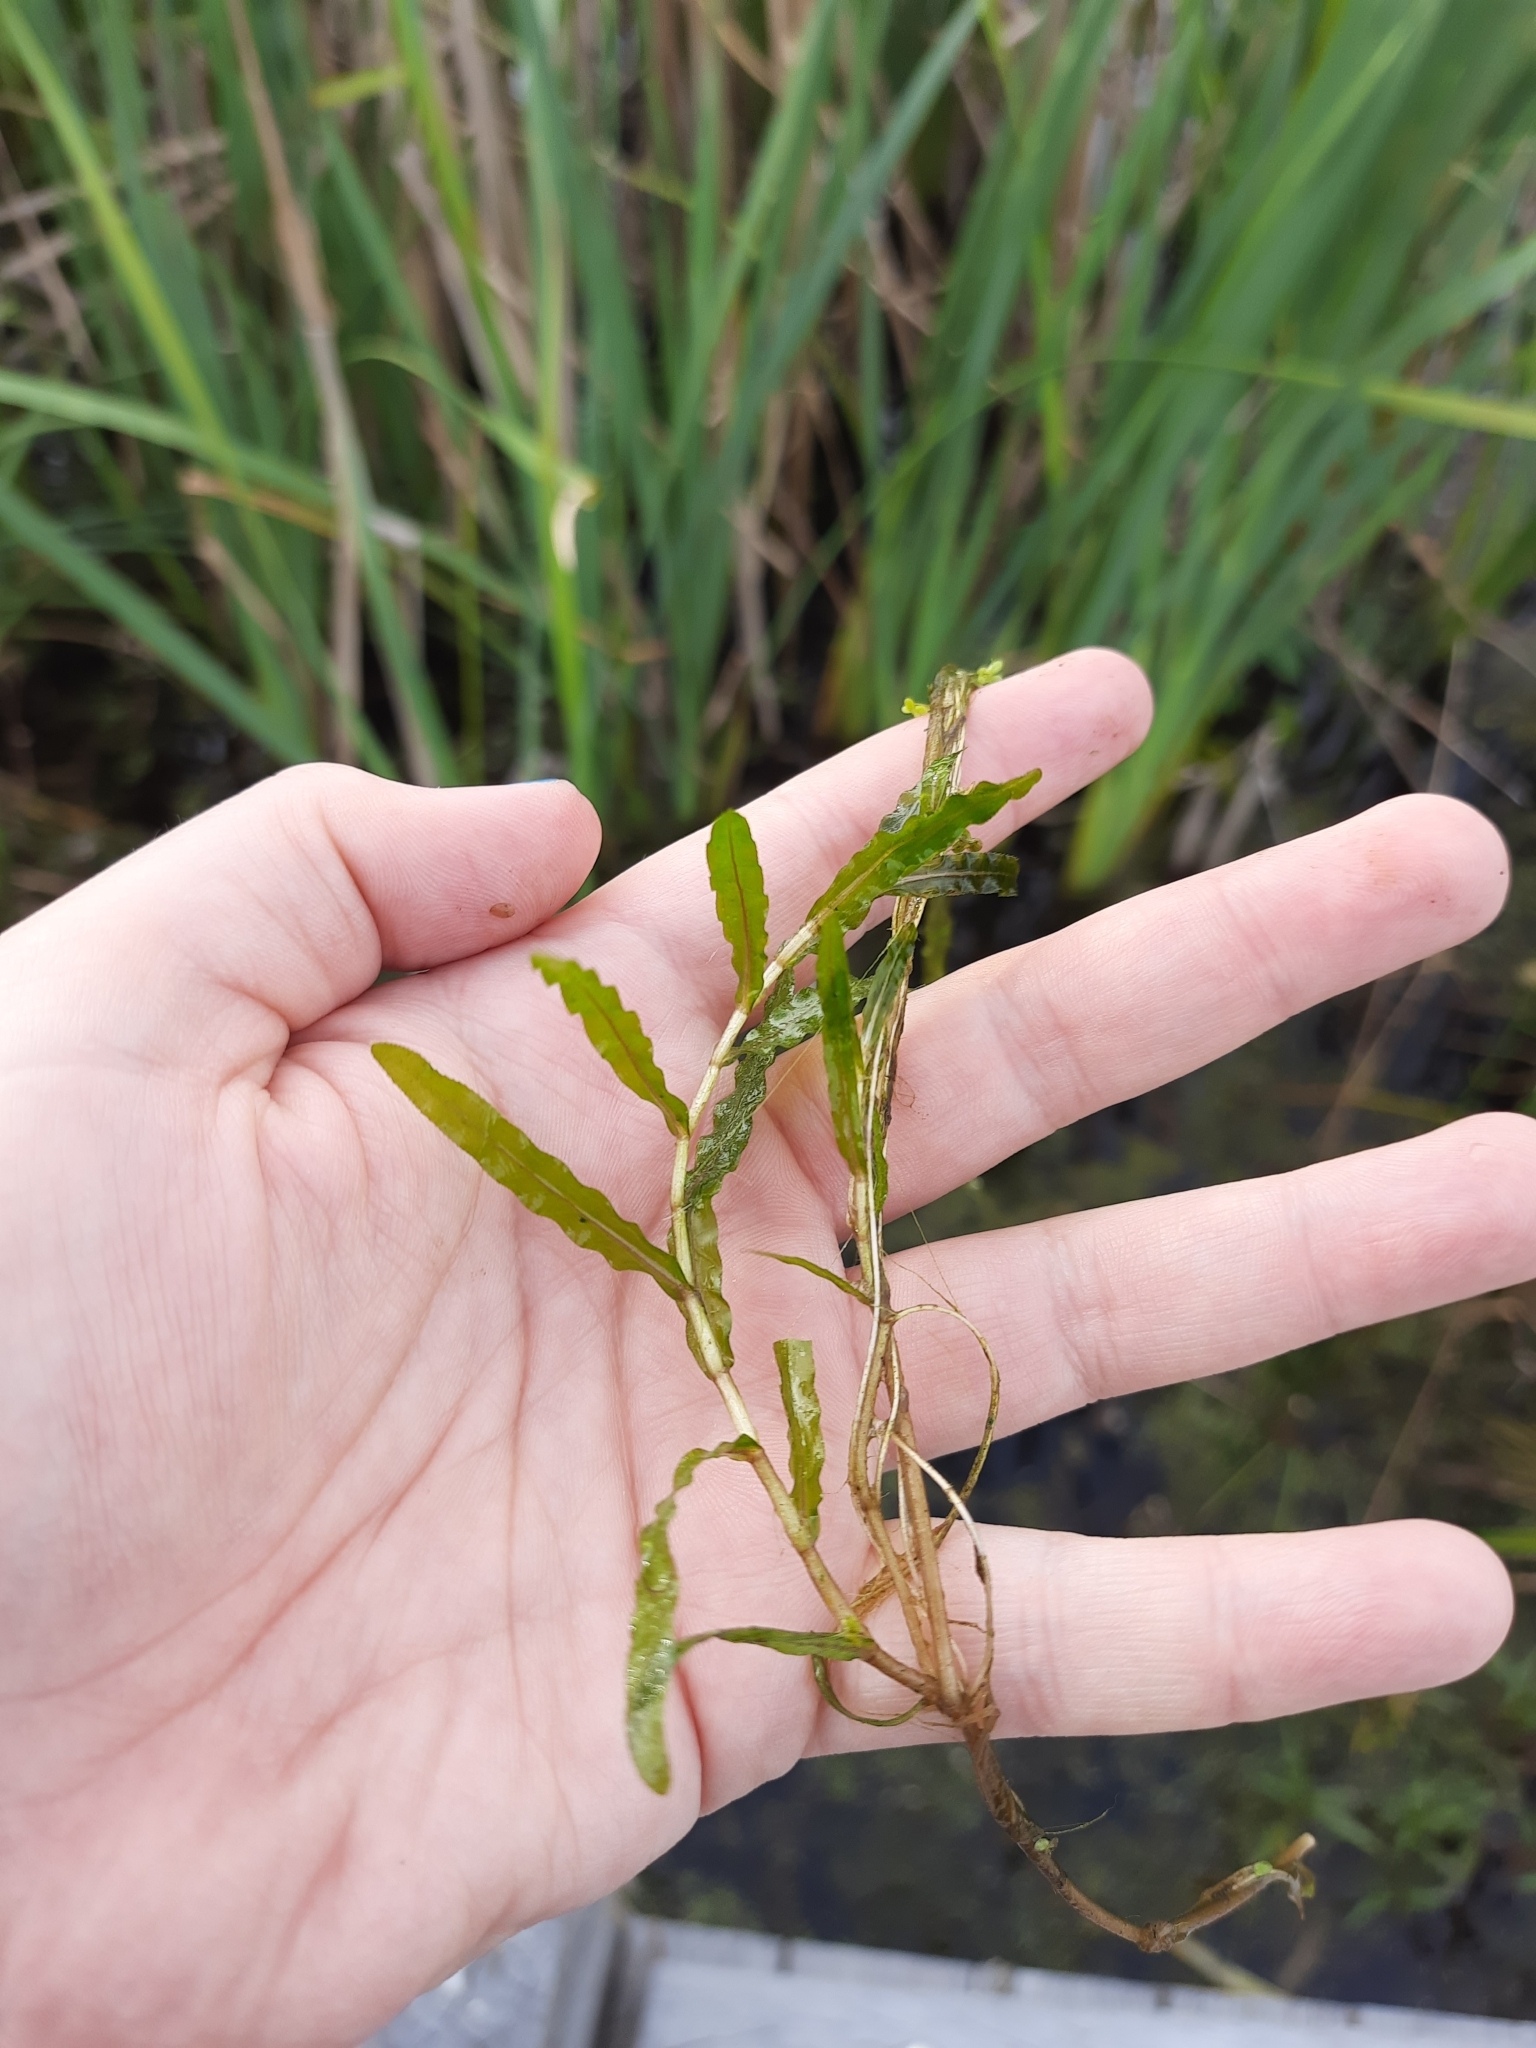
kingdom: Plantae
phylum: Tracheophyta
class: Liliopsida
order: Alismatales
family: Potamogetonaceae
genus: Potamogeton
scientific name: Potamogeton crispus
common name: Curled pondweed
